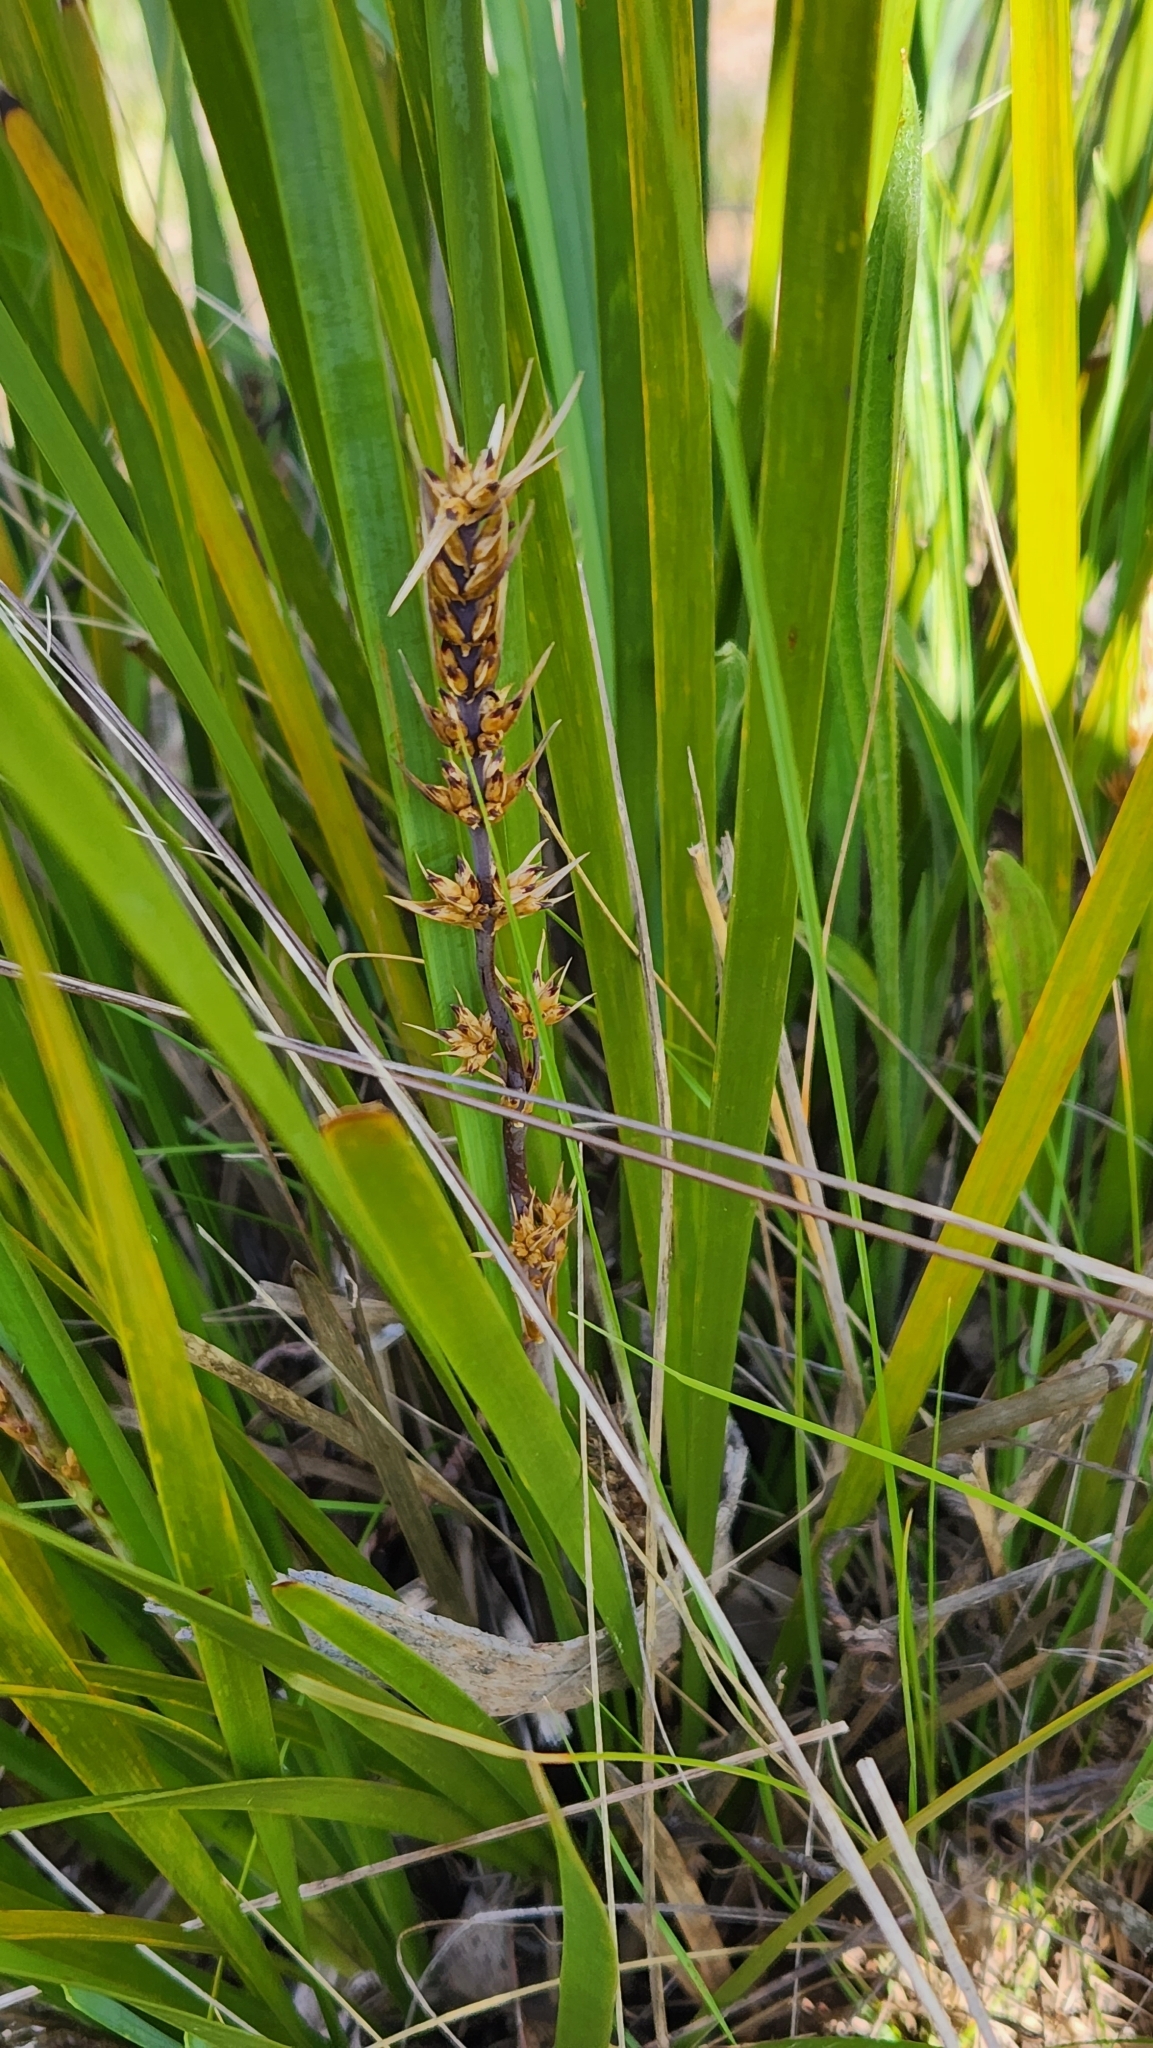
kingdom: Plantae
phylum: Tracheophyta
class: Liliopsida
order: Asparagales
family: Asparagaceae
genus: Lomandra
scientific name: Lomandra longifolia
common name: Longleaf mat-rush
